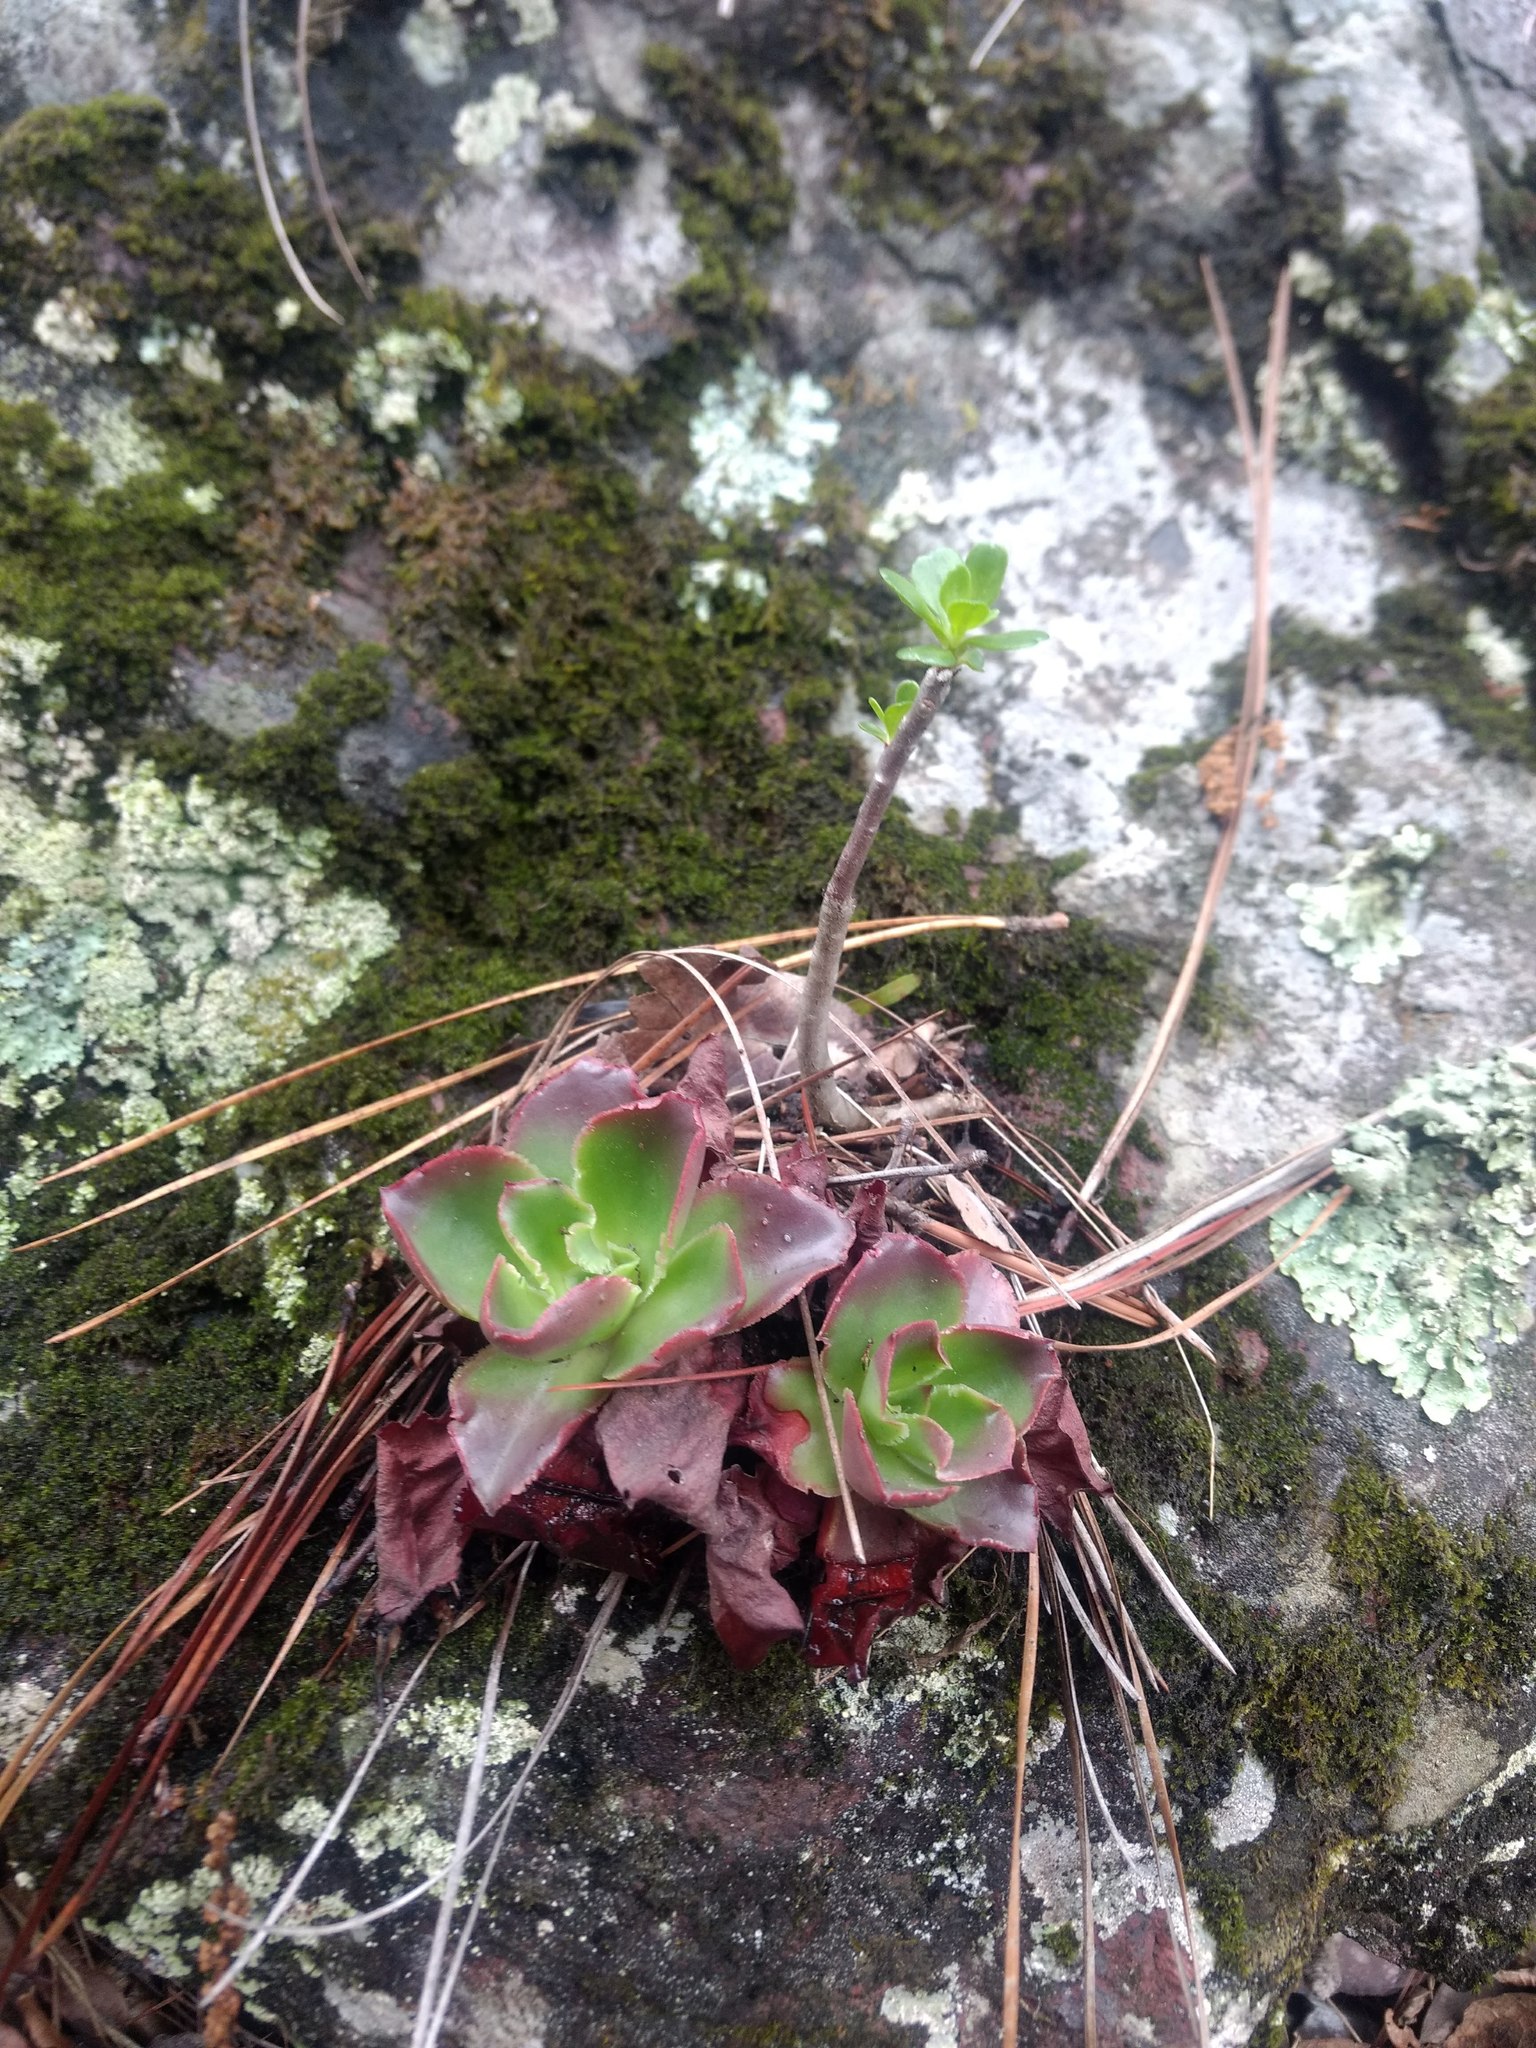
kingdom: Plantae
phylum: Tracheophyta
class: Magnoliopsida
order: Saxifragales
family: Crassulaceae
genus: Echeveria
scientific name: Echeveria fulgens
